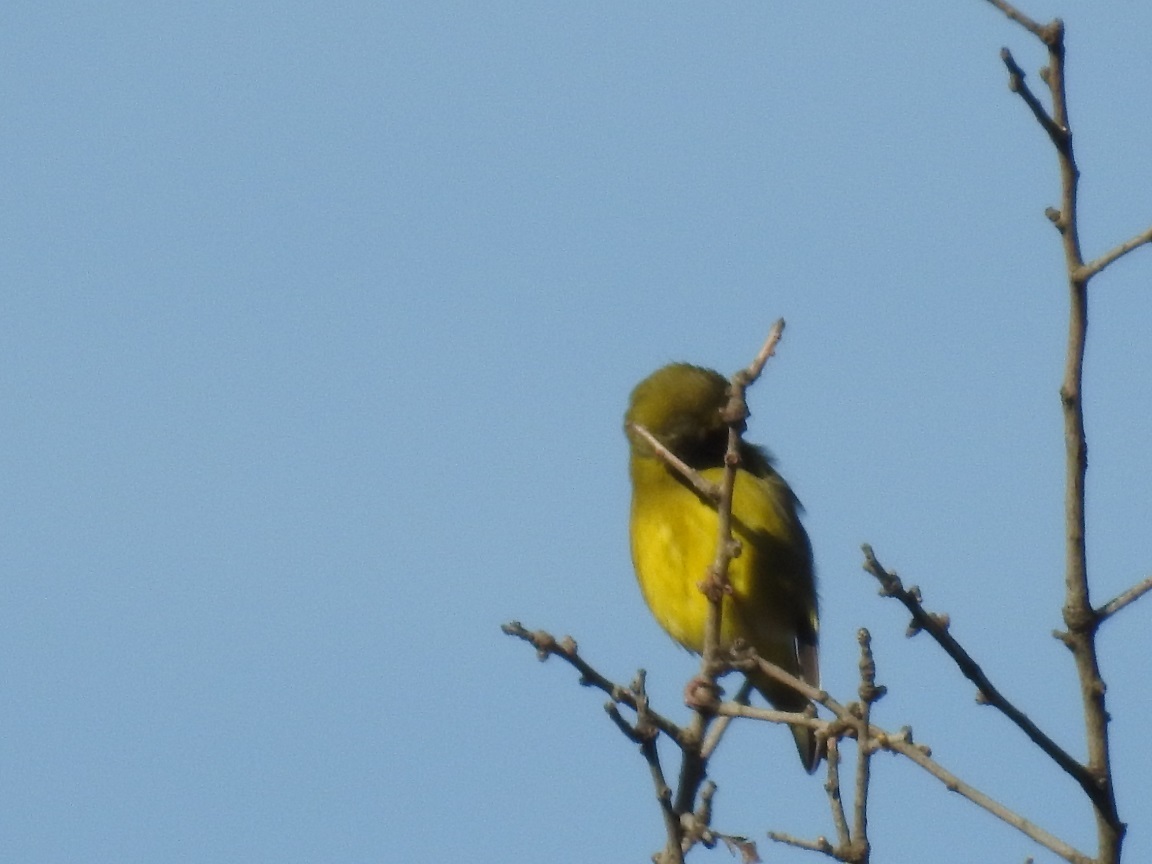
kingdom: Plantae
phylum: Tracheophyta
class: Liliopsida
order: Poales
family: Poaceae
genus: Chloris
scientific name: Chloris chloris
